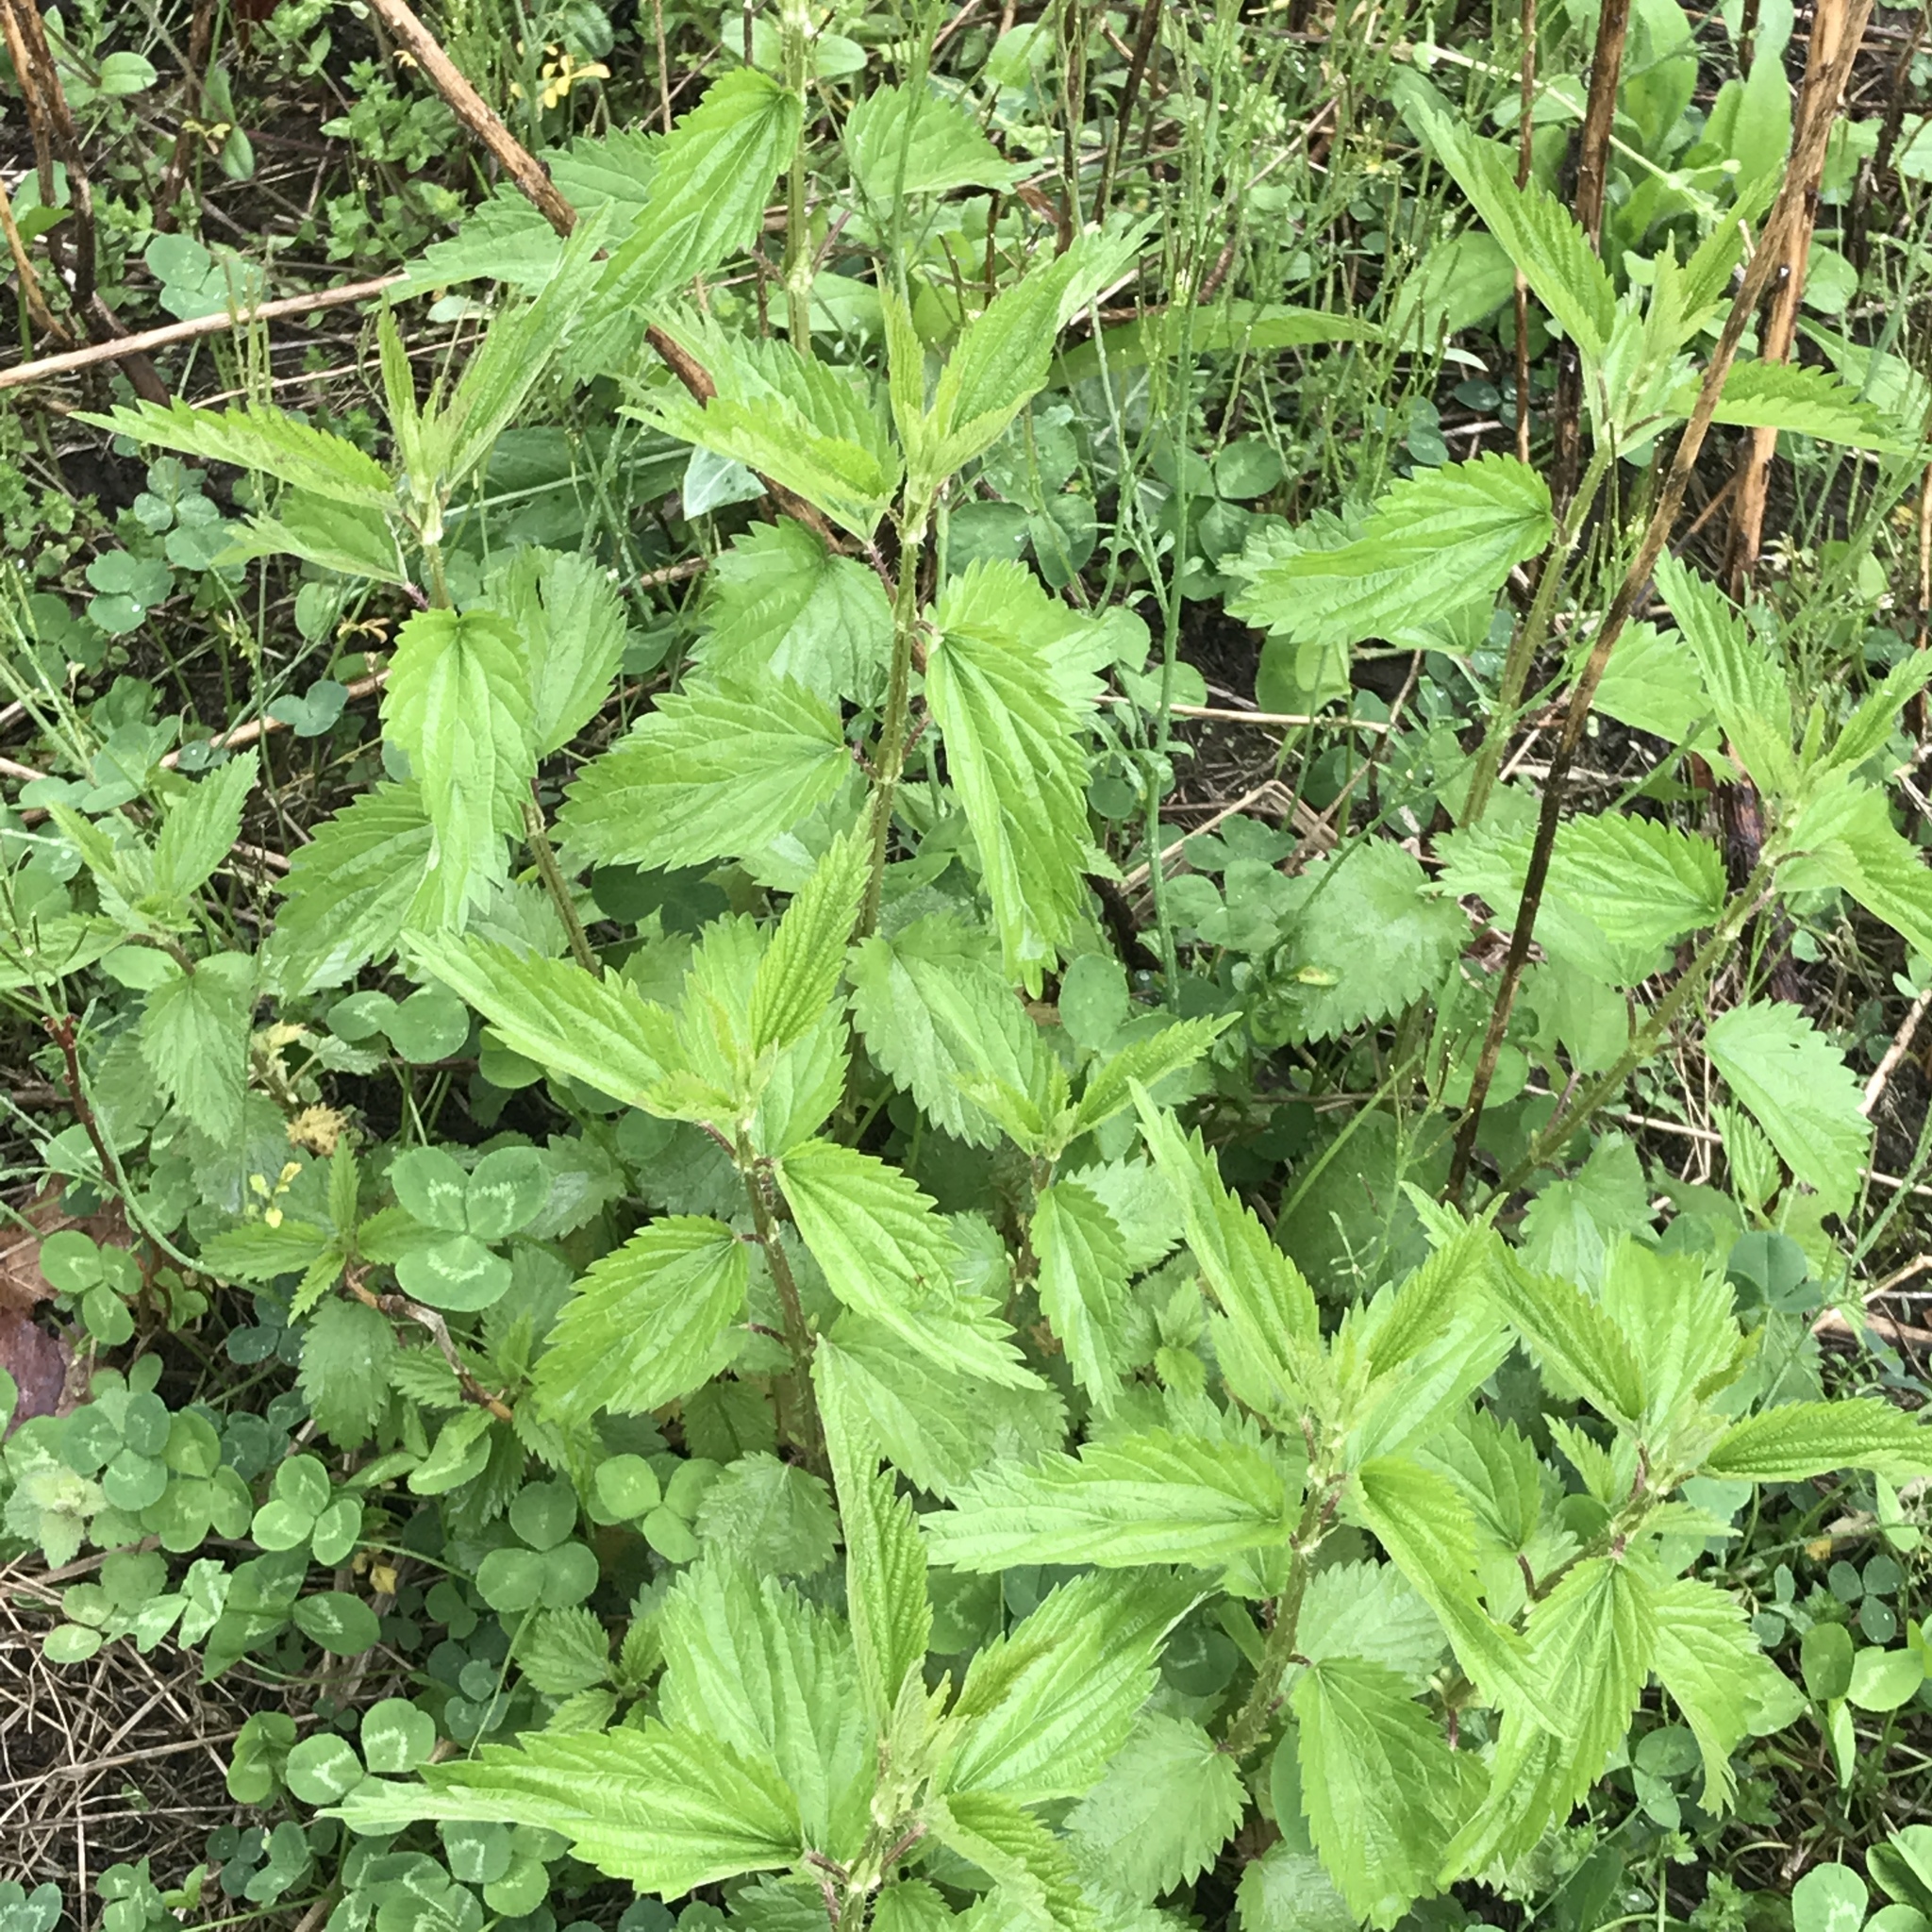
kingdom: Plantae
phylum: Tracheophyta
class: Magnoliopsida
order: Rosales
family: Urticaceae
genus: Urtica
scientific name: Urtica gracilis
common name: Slender stinging nettle
